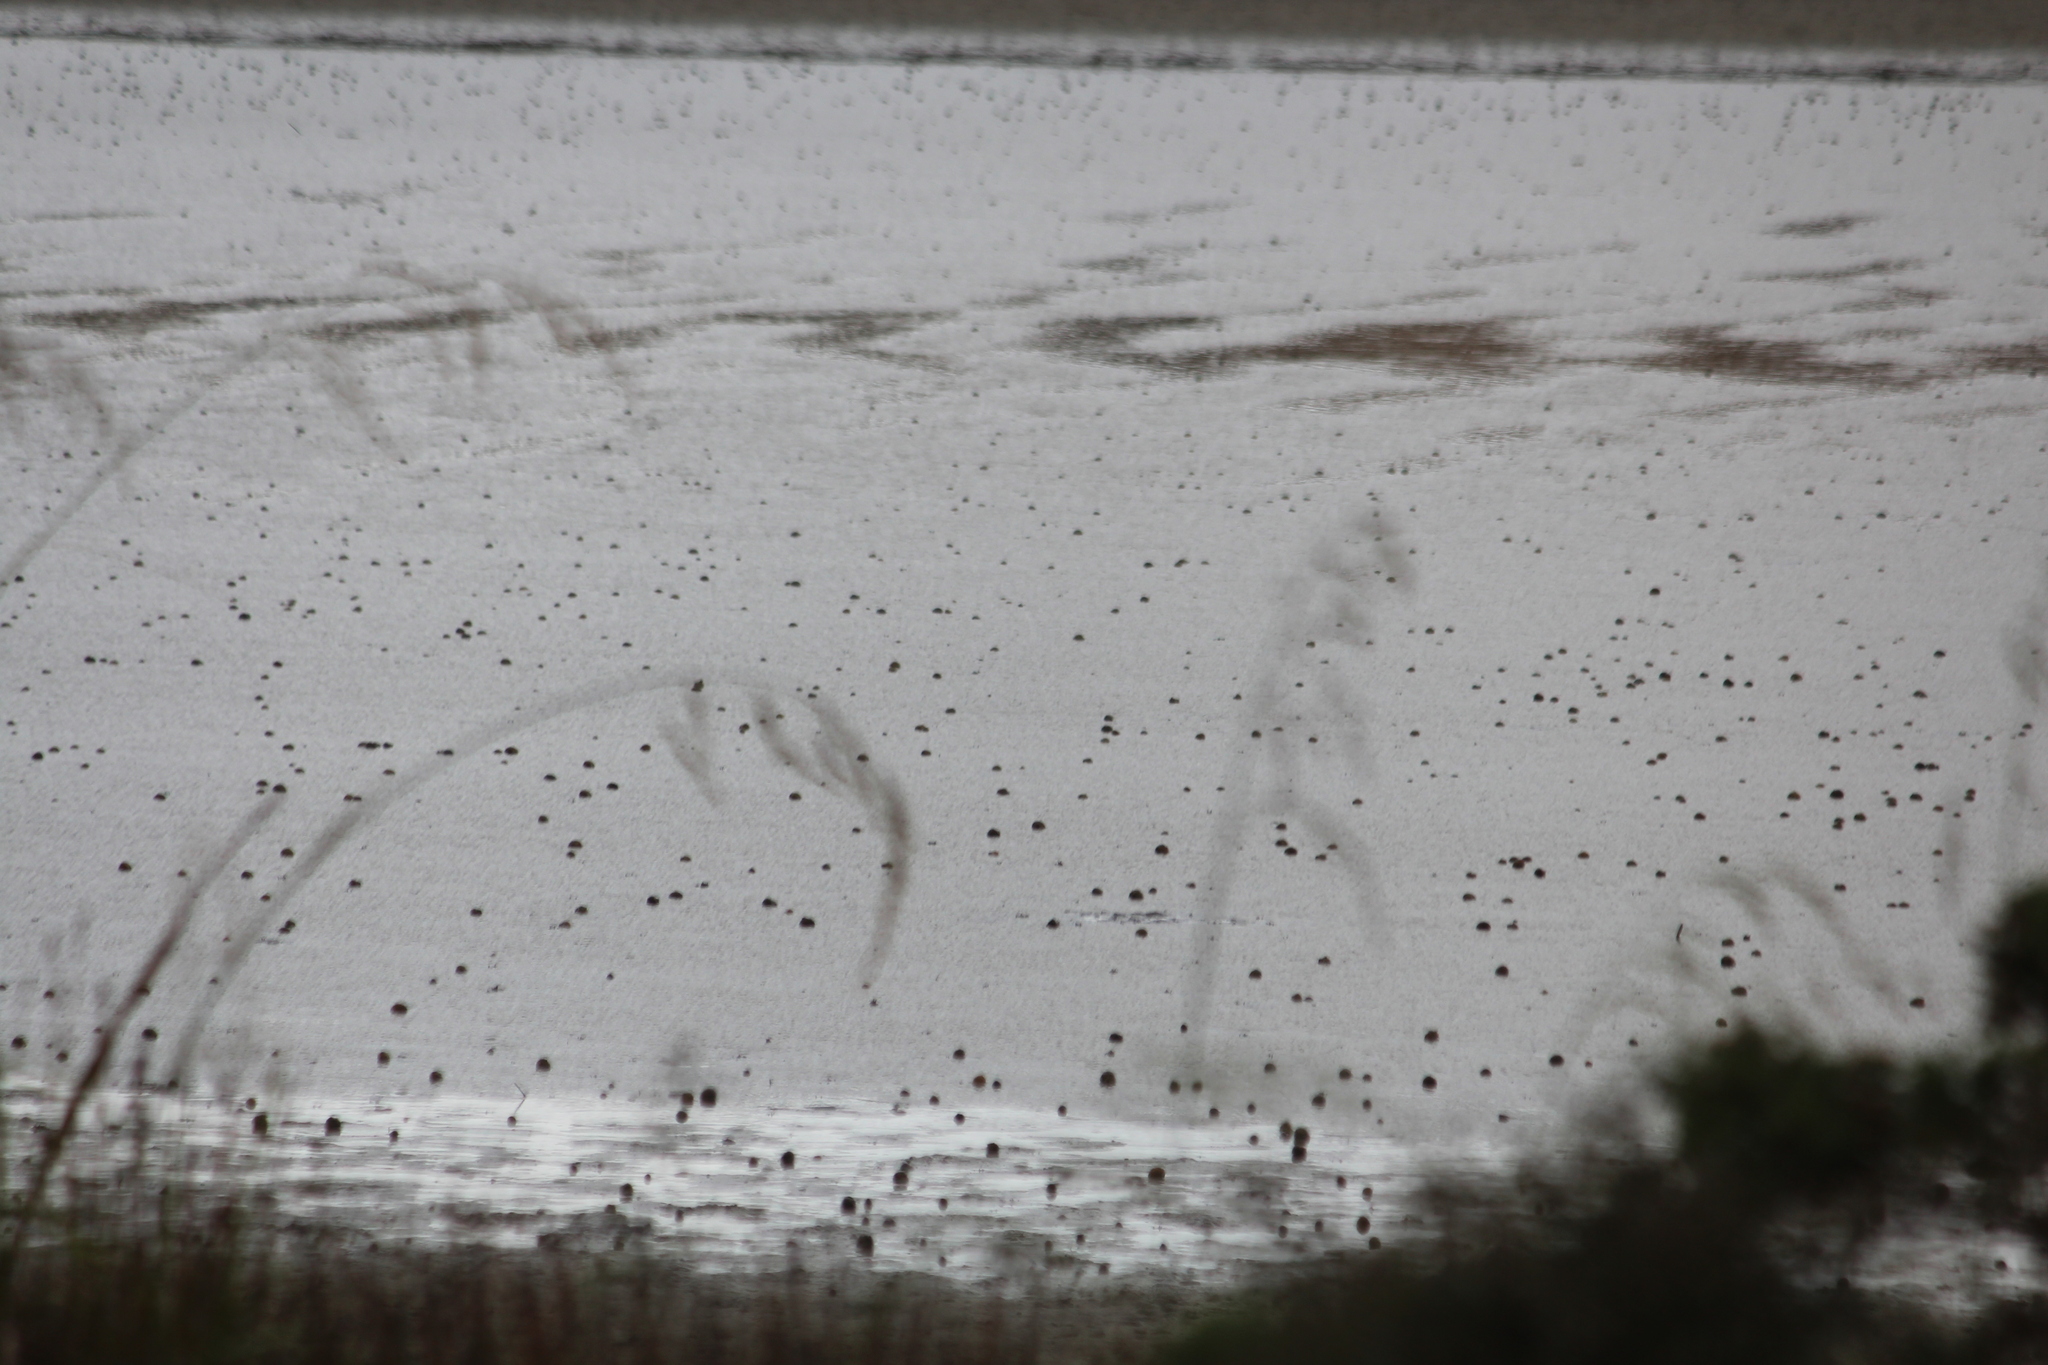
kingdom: Animalia
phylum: Mollusca
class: Gastropoda
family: Amphibolidae
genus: Amphibola
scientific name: Amphibola crenata
